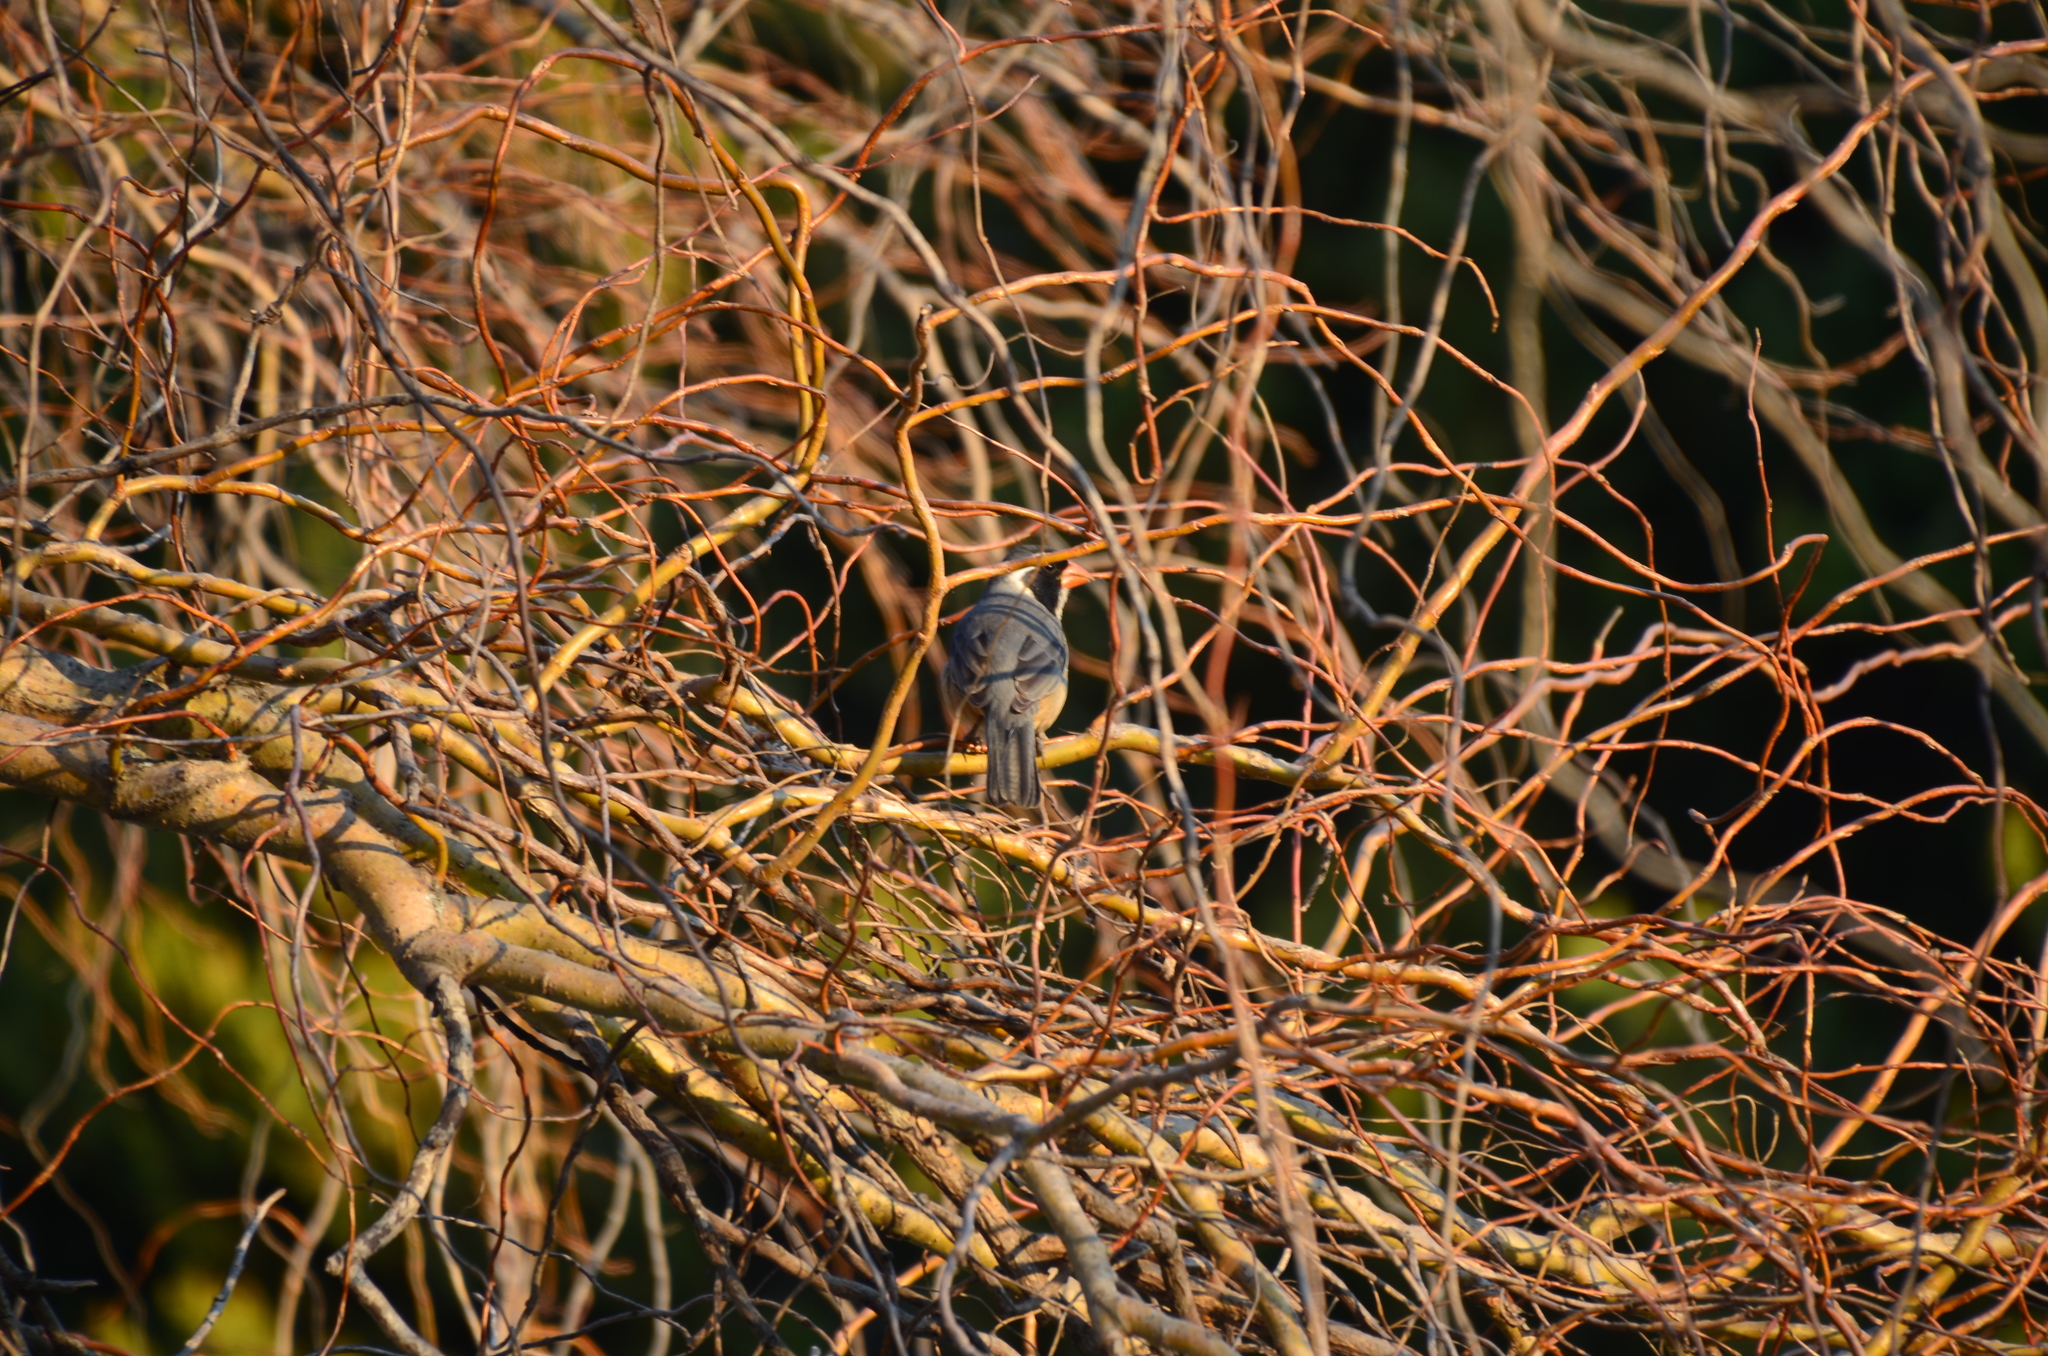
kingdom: Animalia
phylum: Chordata
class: Aves
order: Passeriformes
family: Thraupidae
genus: Saltator
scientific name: Saltator aurantiirostris
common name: Golden-billed saltator
